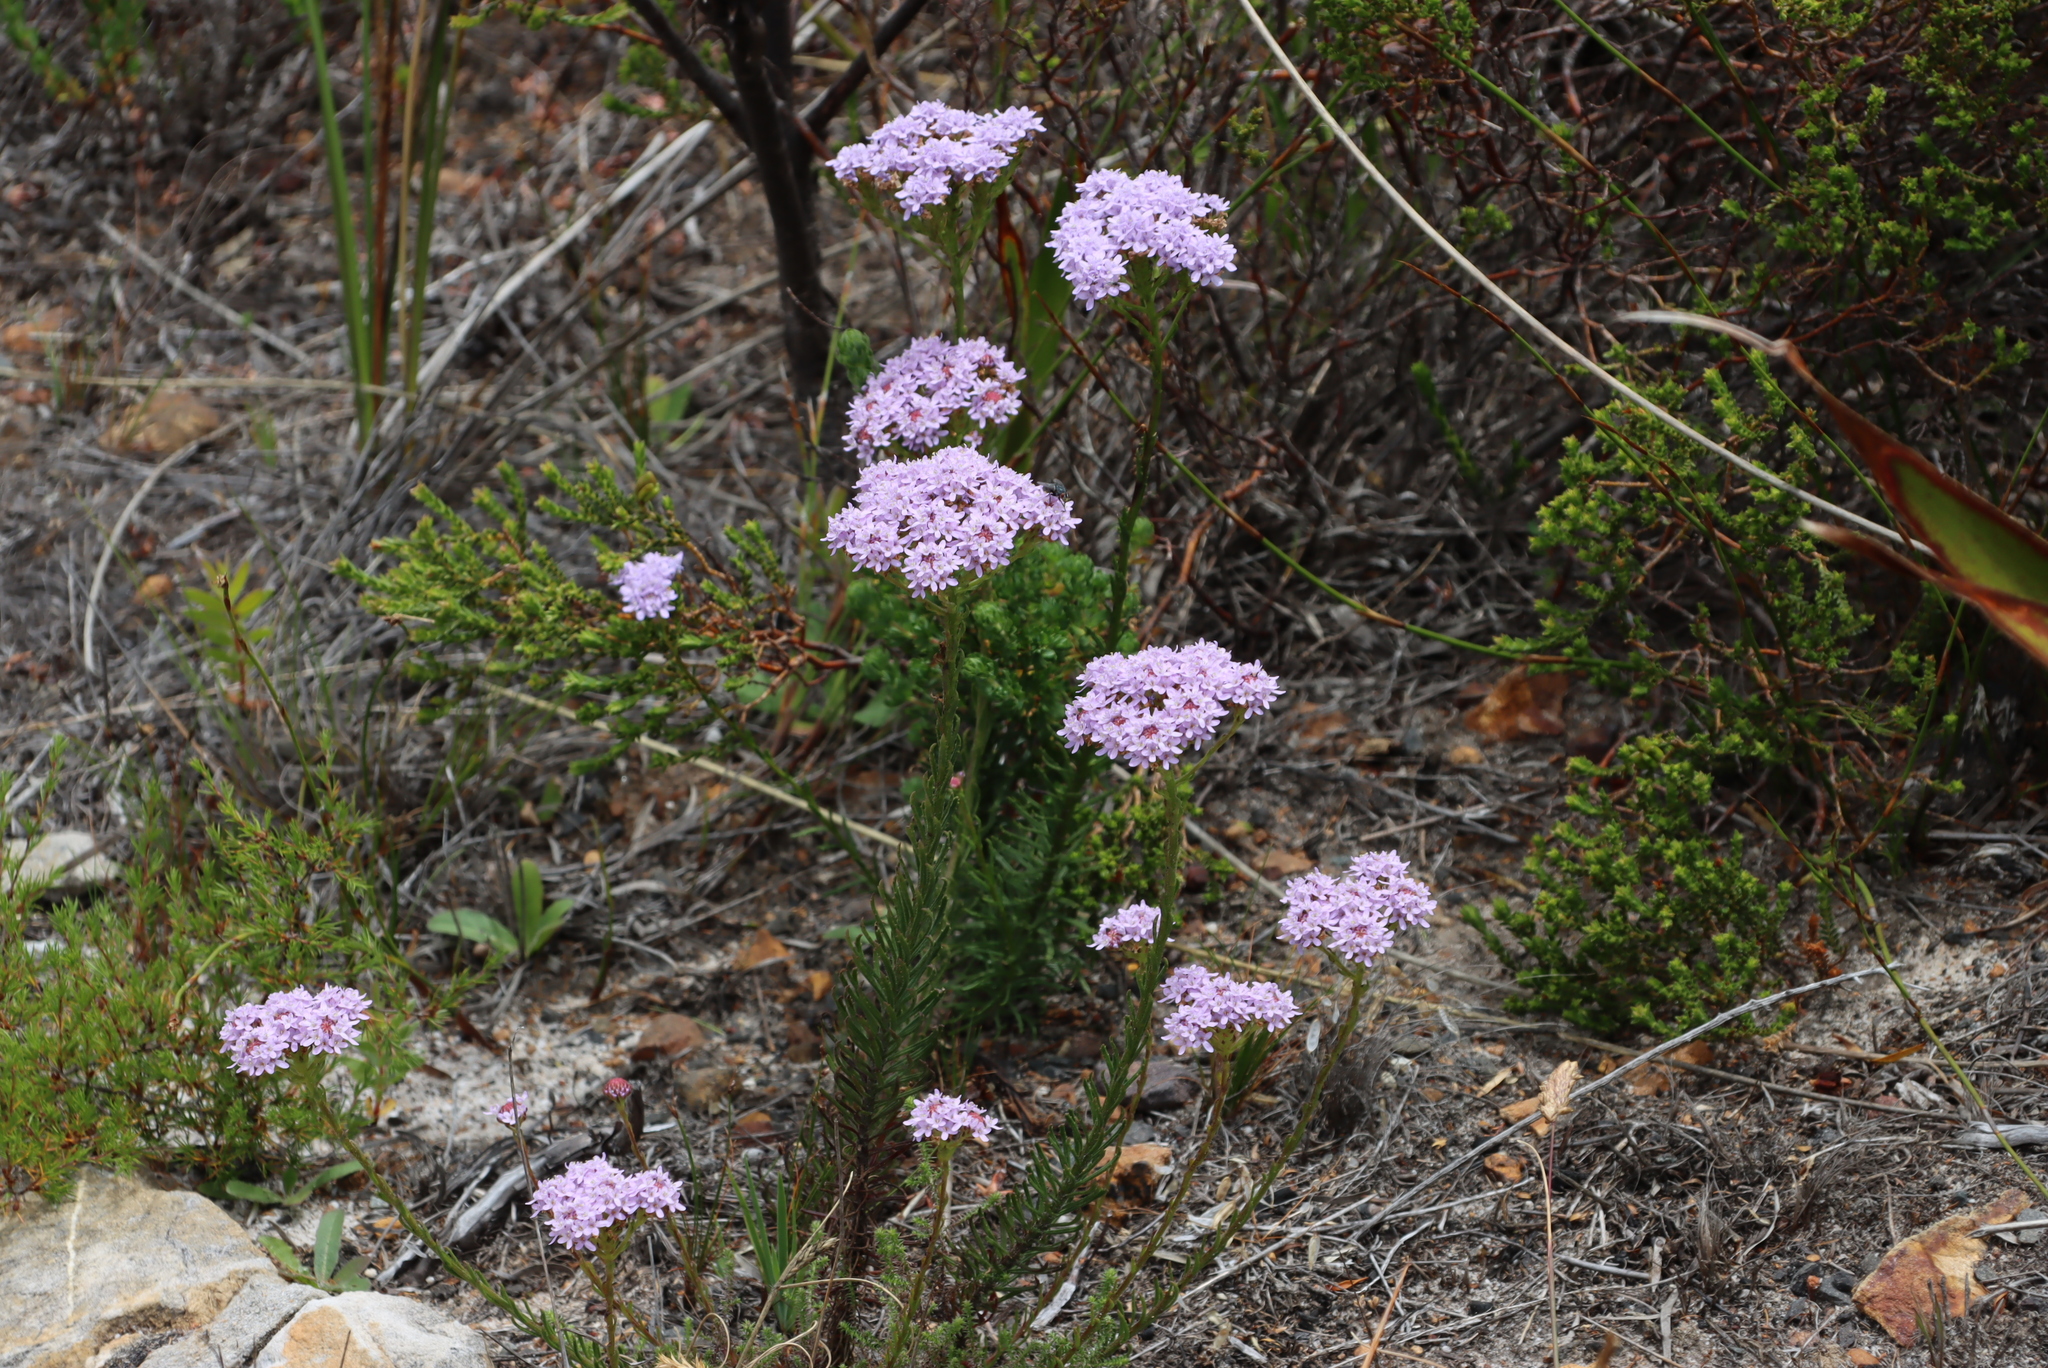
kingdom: Plantae
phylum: Tracheophyta
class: Magnoliopsida
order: Lamiales
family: Scrophulariaceae
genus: Pseudoselago
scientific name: Pseudoselago spuria
